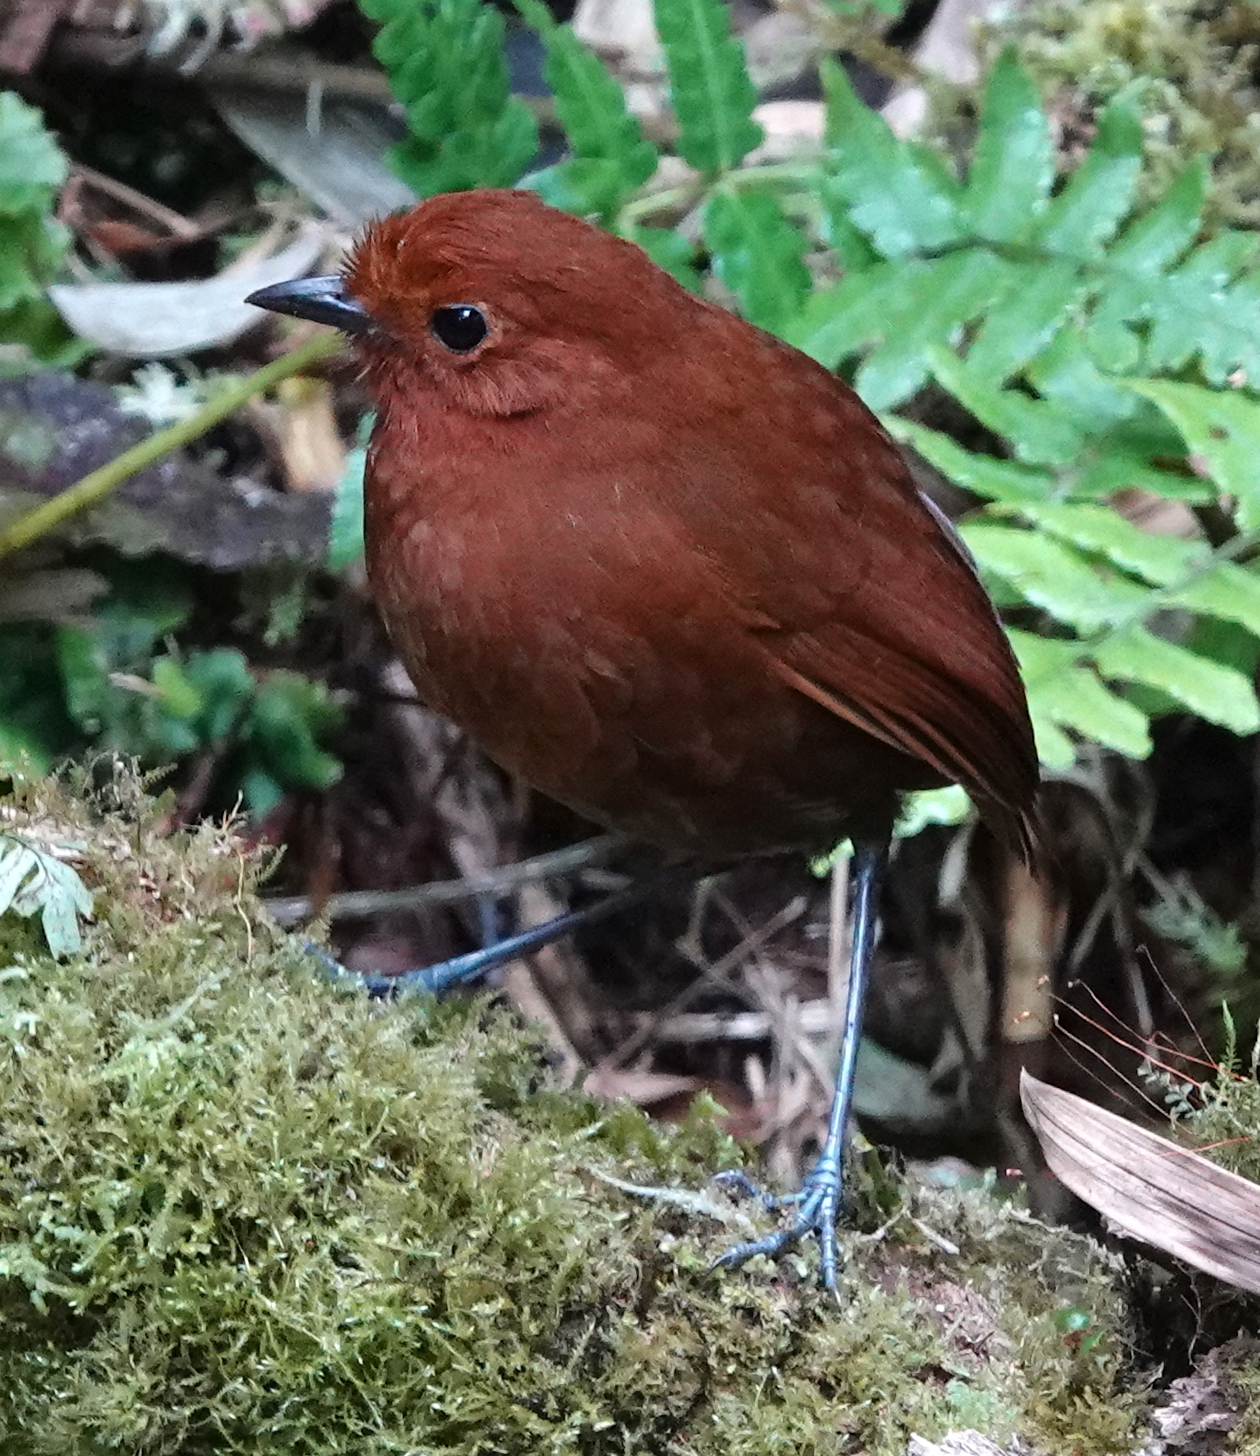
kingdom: Animalia
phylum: Chordata
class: Aves
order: Passeriformes
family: Grallariidae
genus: Grallaria
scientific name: Grallaria alvarezi
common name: Chami antpitta
